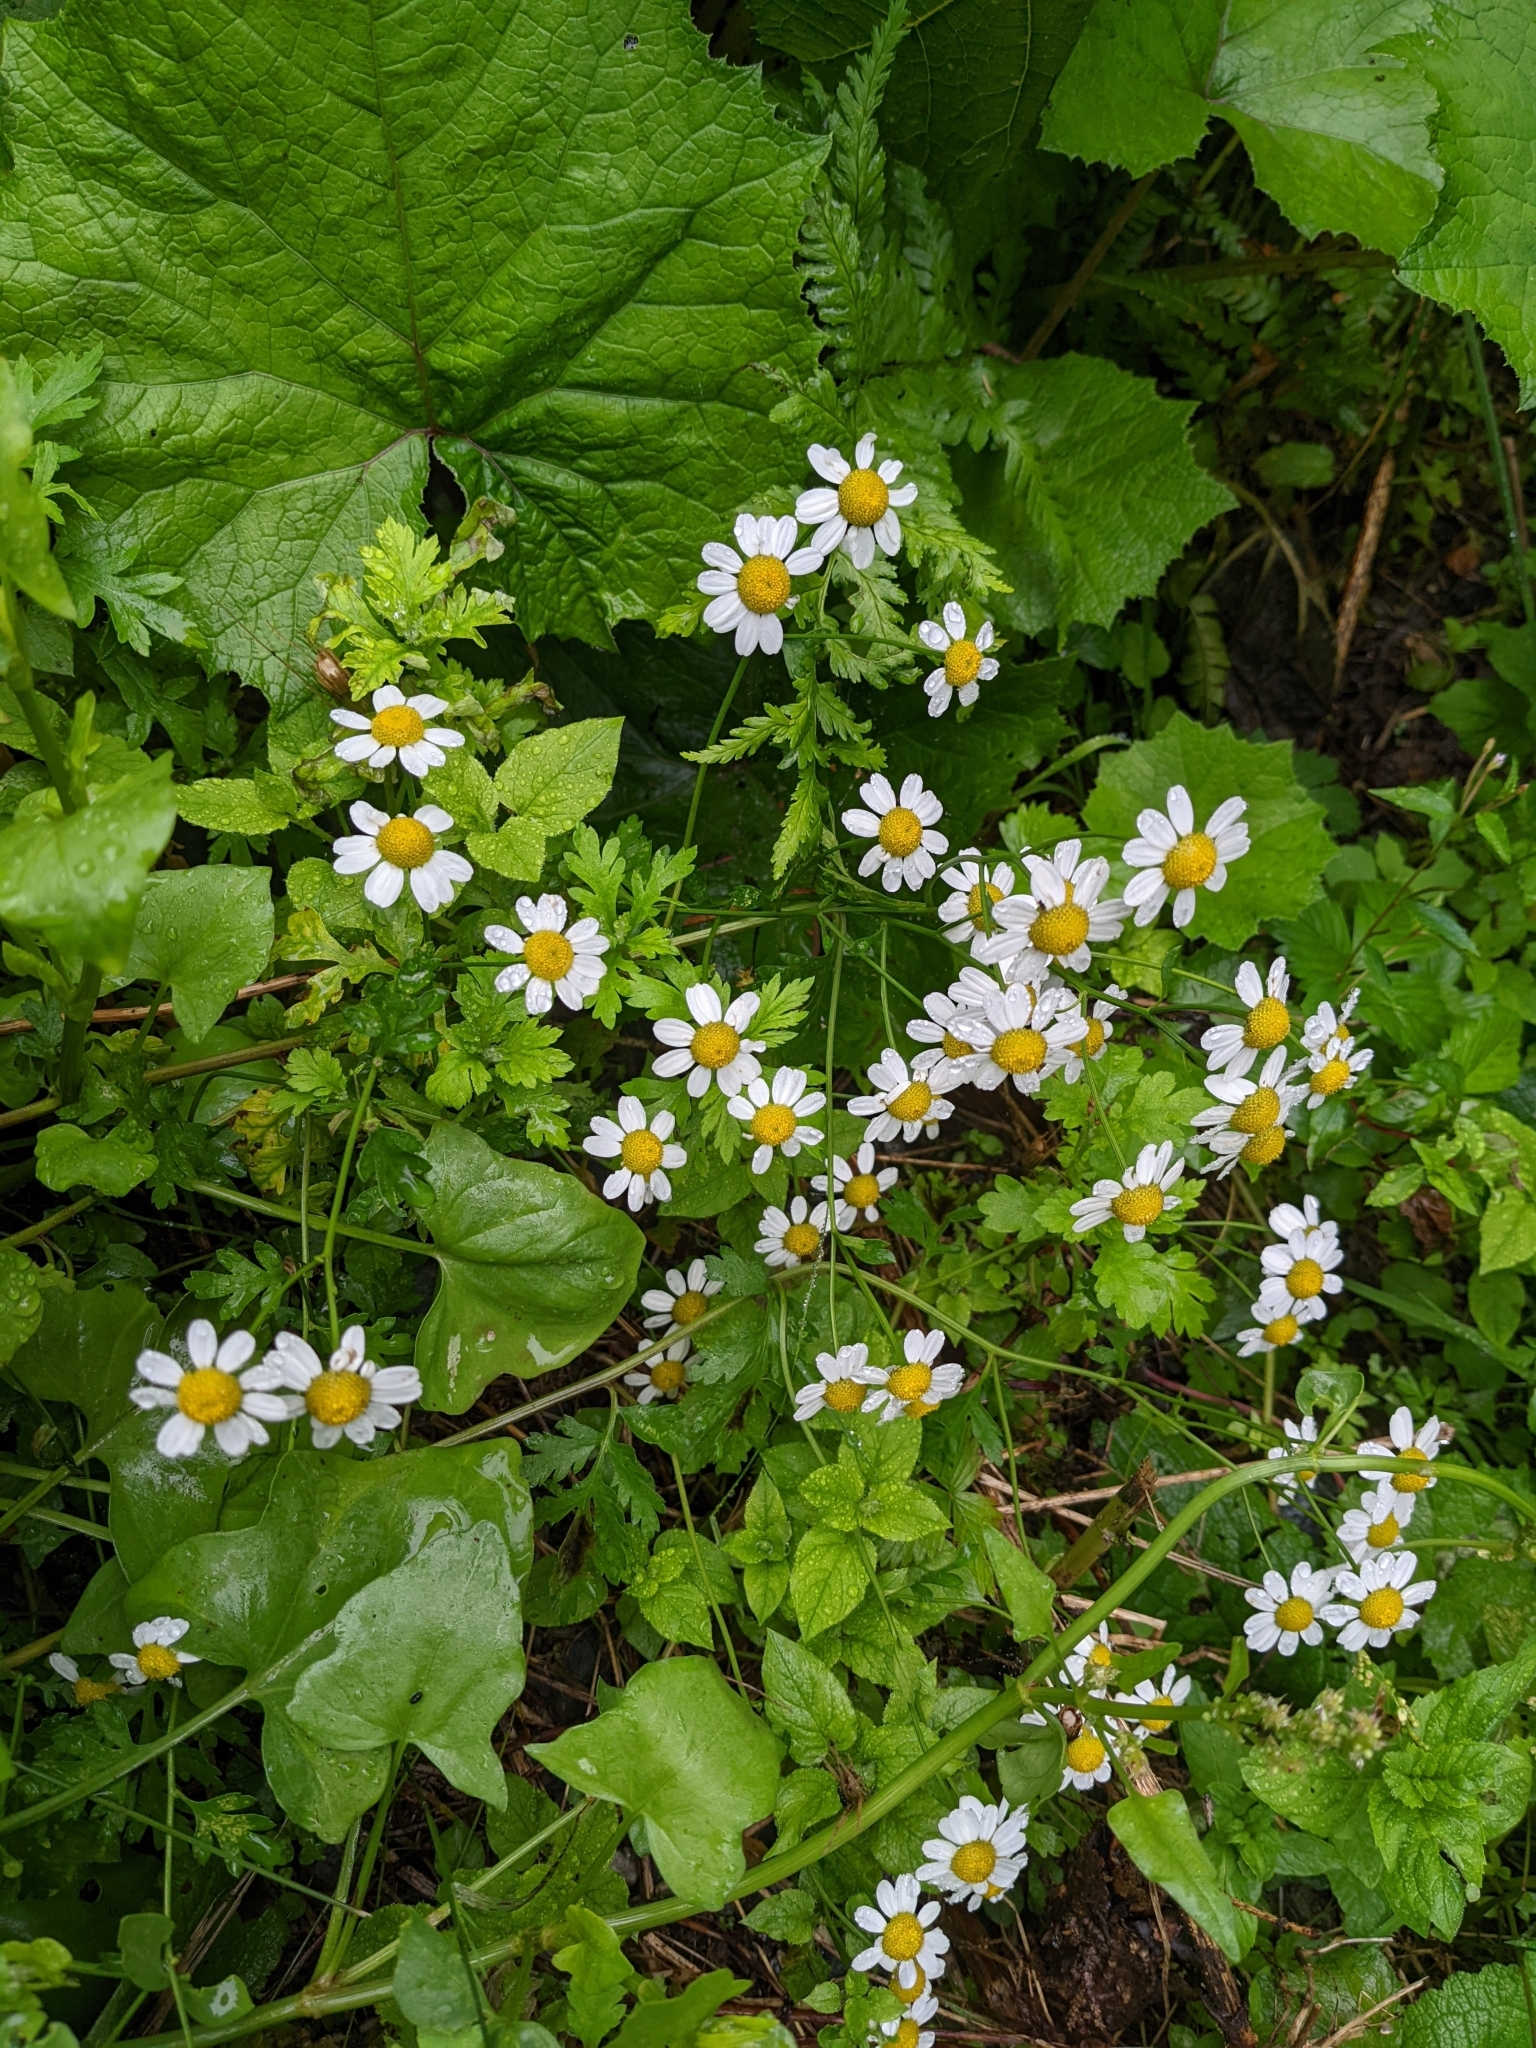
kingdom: Plantae
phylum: Tracheophyta
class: Magnoliopsida
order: Asterales
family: Asteraceae
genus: Tanacetum
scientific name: Tanacetum parthenium
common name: Feverfew
